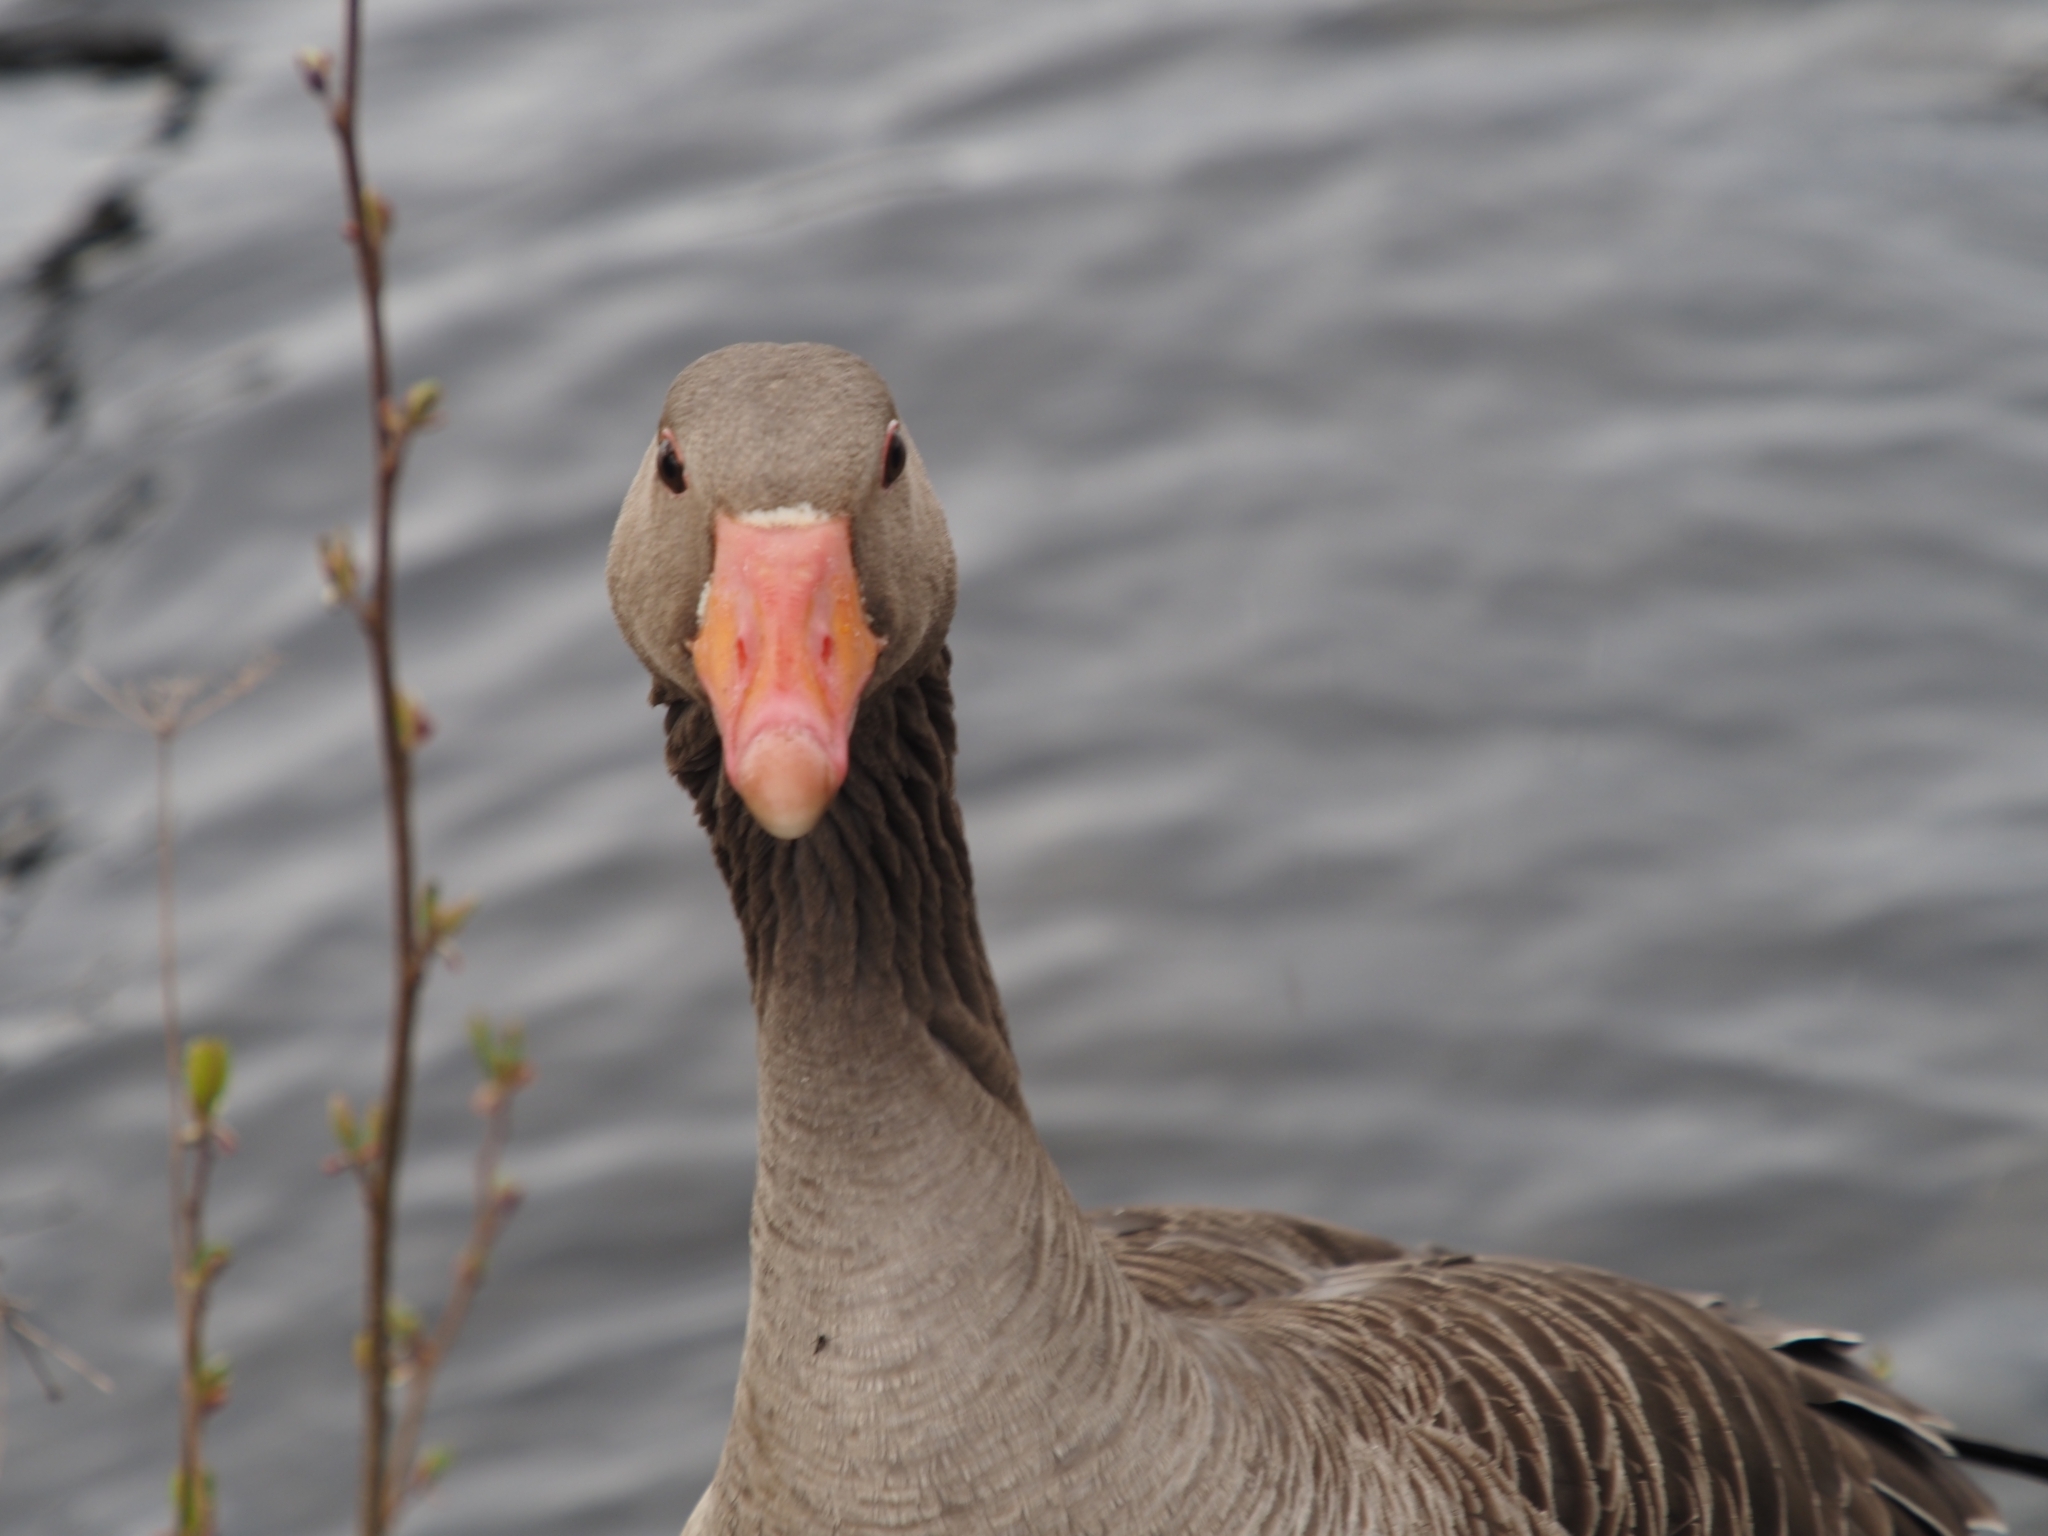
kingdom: Animalia
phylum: Chordata
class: Aves
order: Anseriformes
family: Anatidae
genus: Anser
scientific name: Anser anser
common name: Greylag goose
